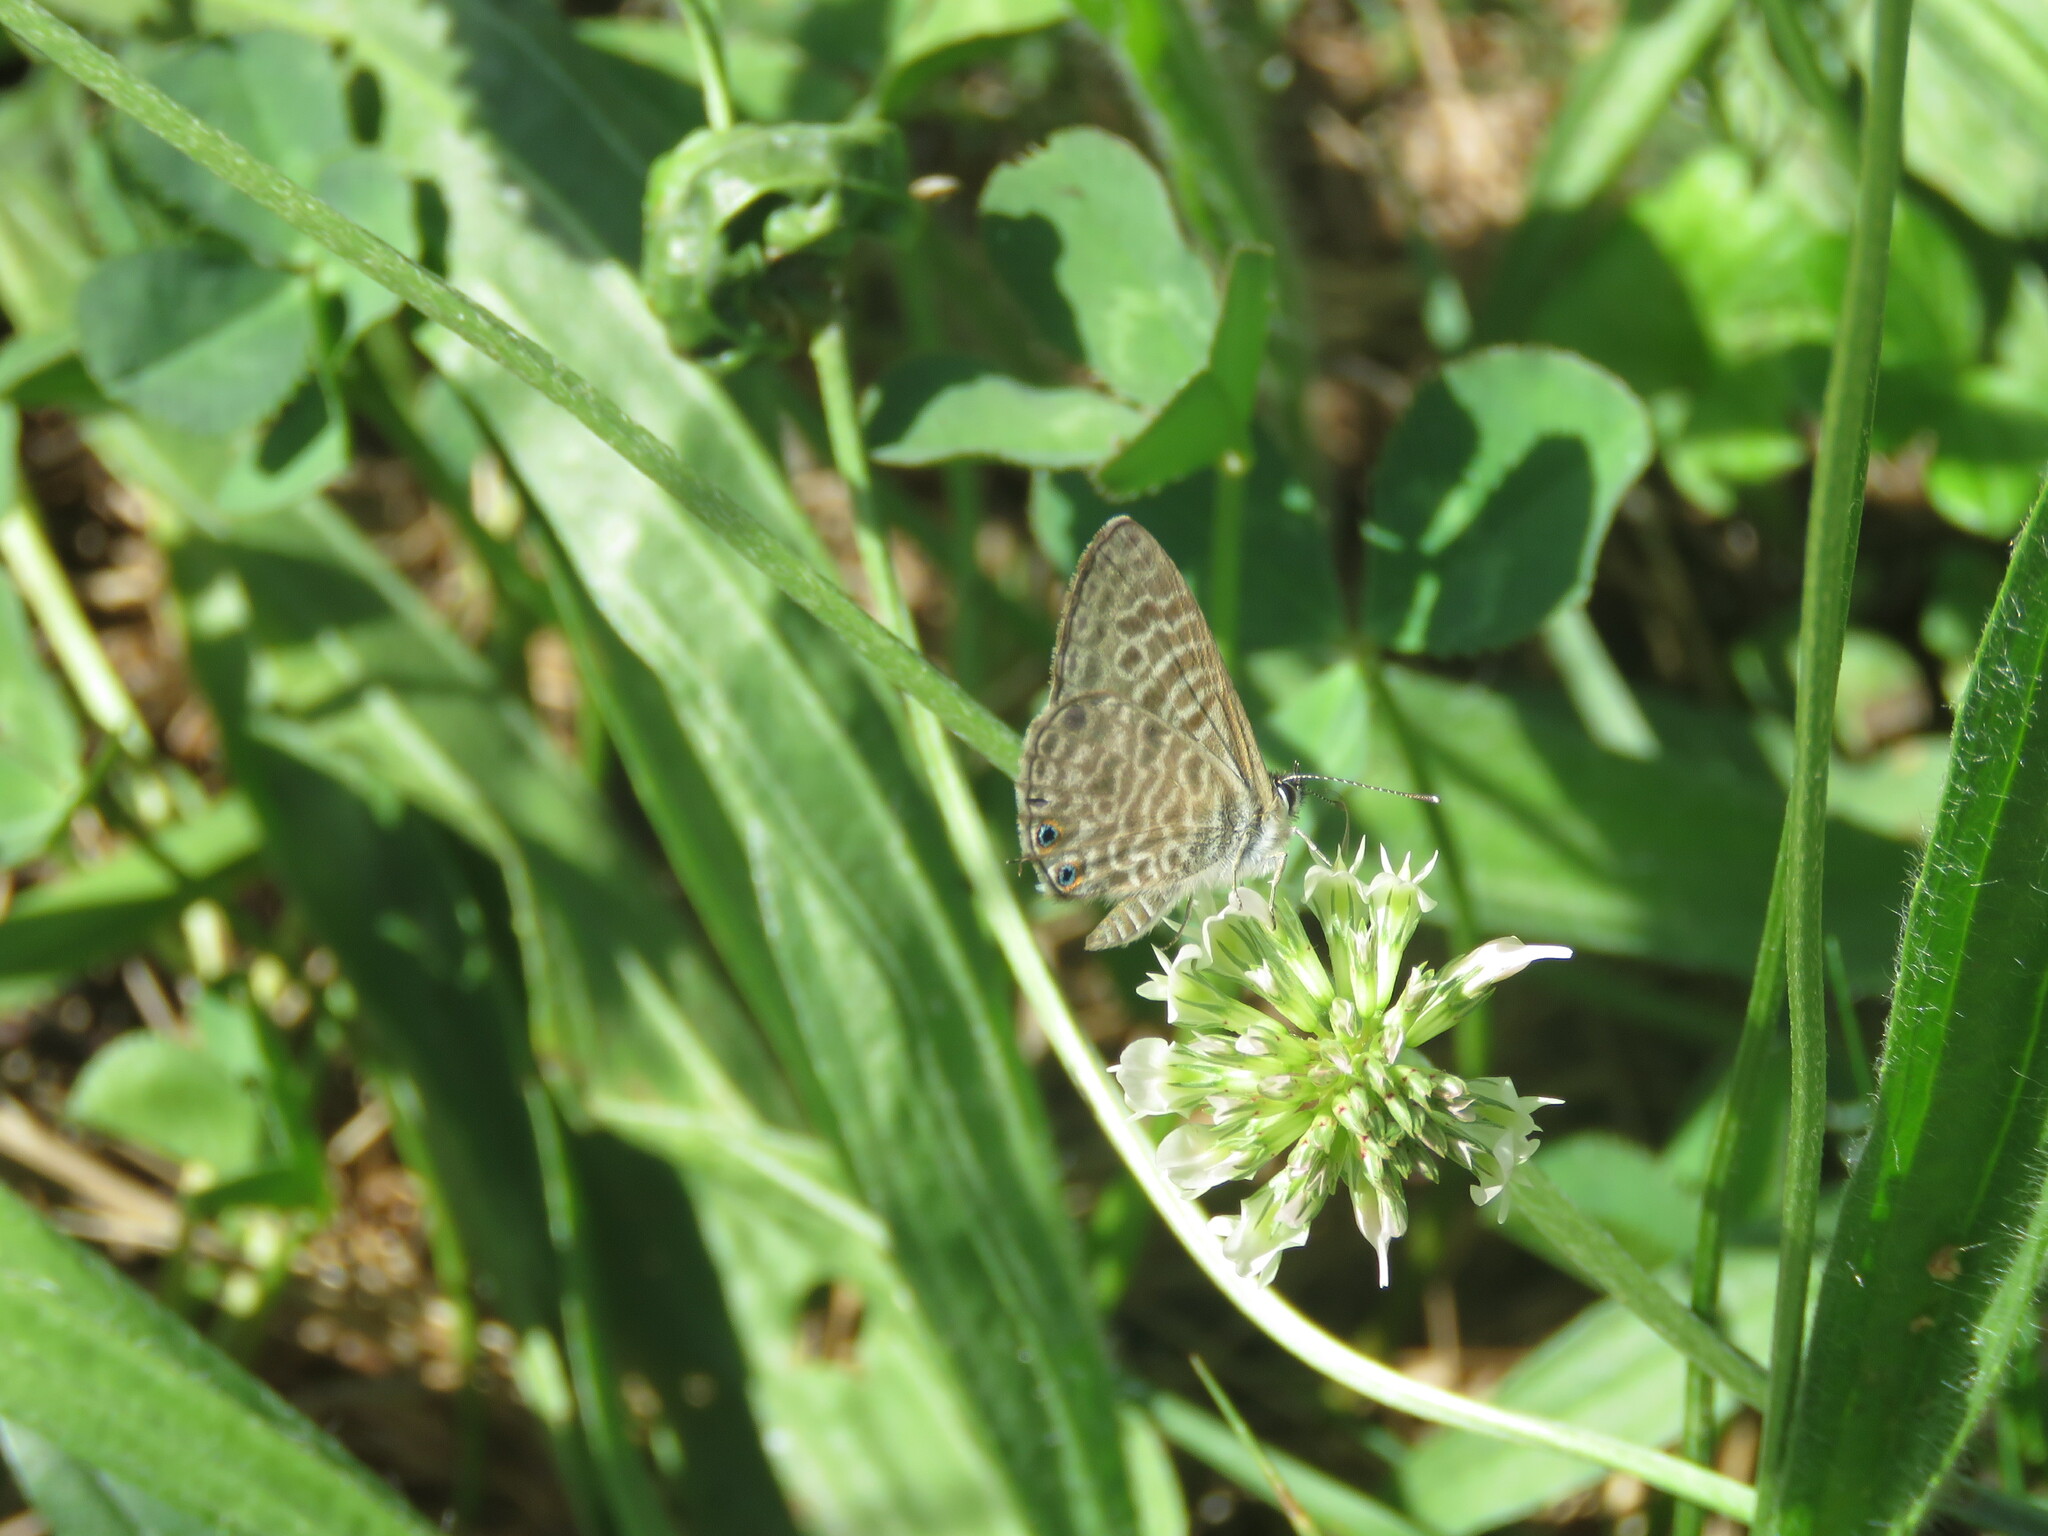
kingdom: Animalia
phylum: Arthropoda
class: Insecta
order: Lepidoptera
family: Lycaenidae
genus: Leptotes
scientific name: Leptotes pirithous
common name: Lang's short-tailed blue
